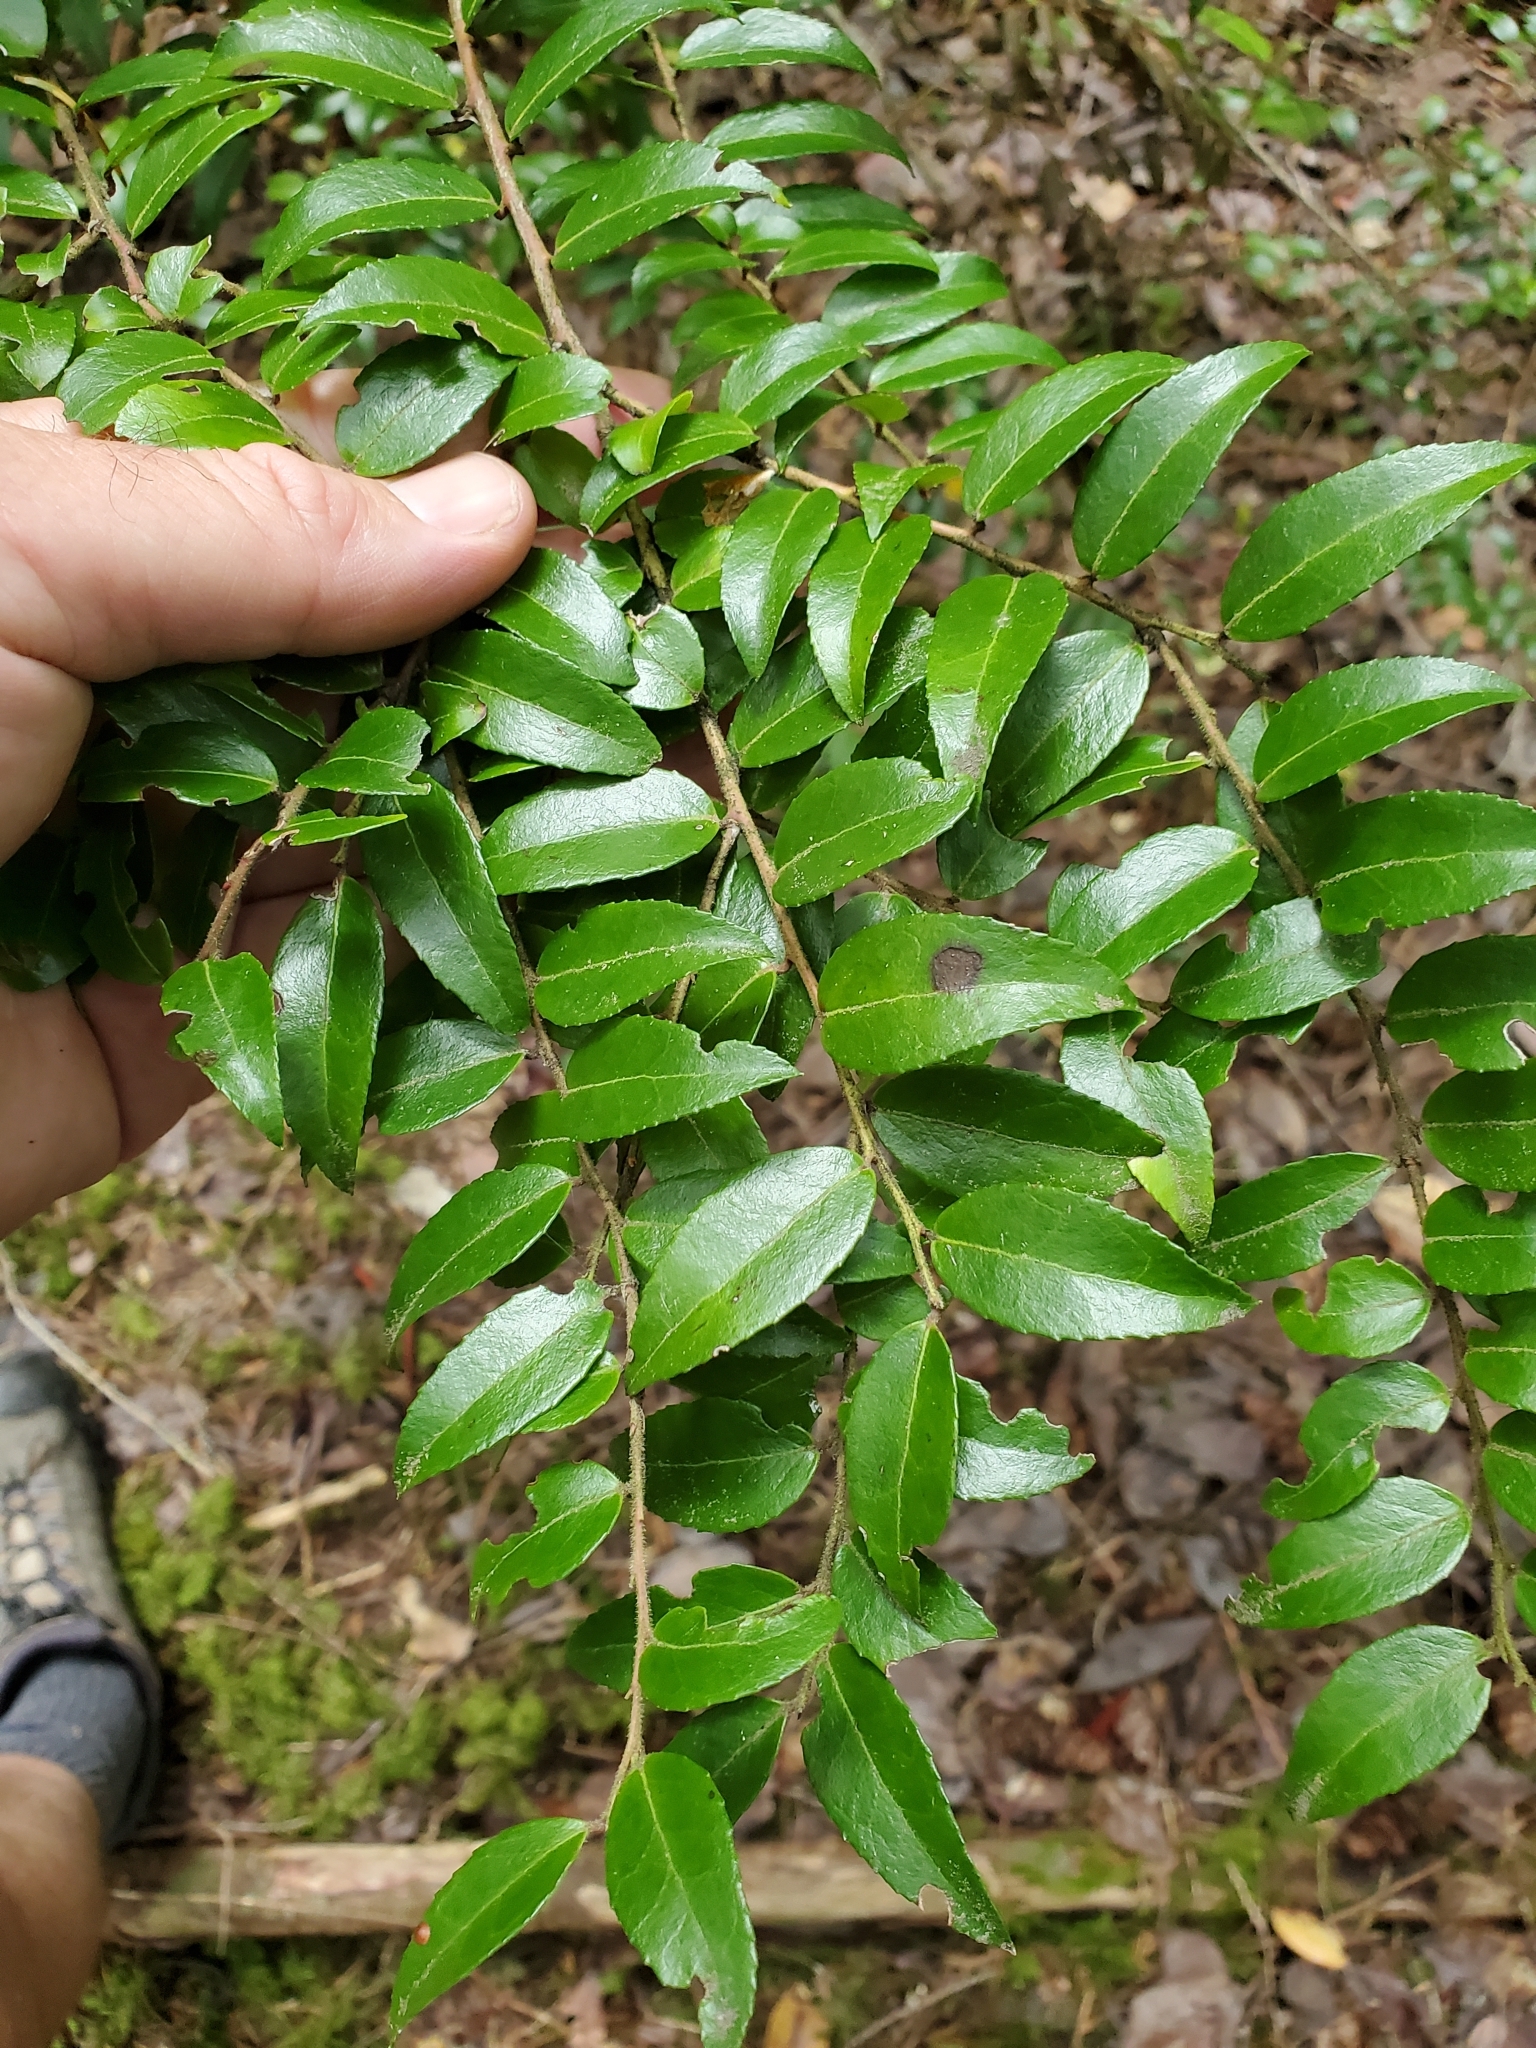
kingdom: Plantae
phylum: Tracheophyta
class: Magnoliopsida
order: Ericales
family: Ericaceae
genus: Vaccinium
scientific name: Vaccinium ovatum
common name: California-huckleberry
